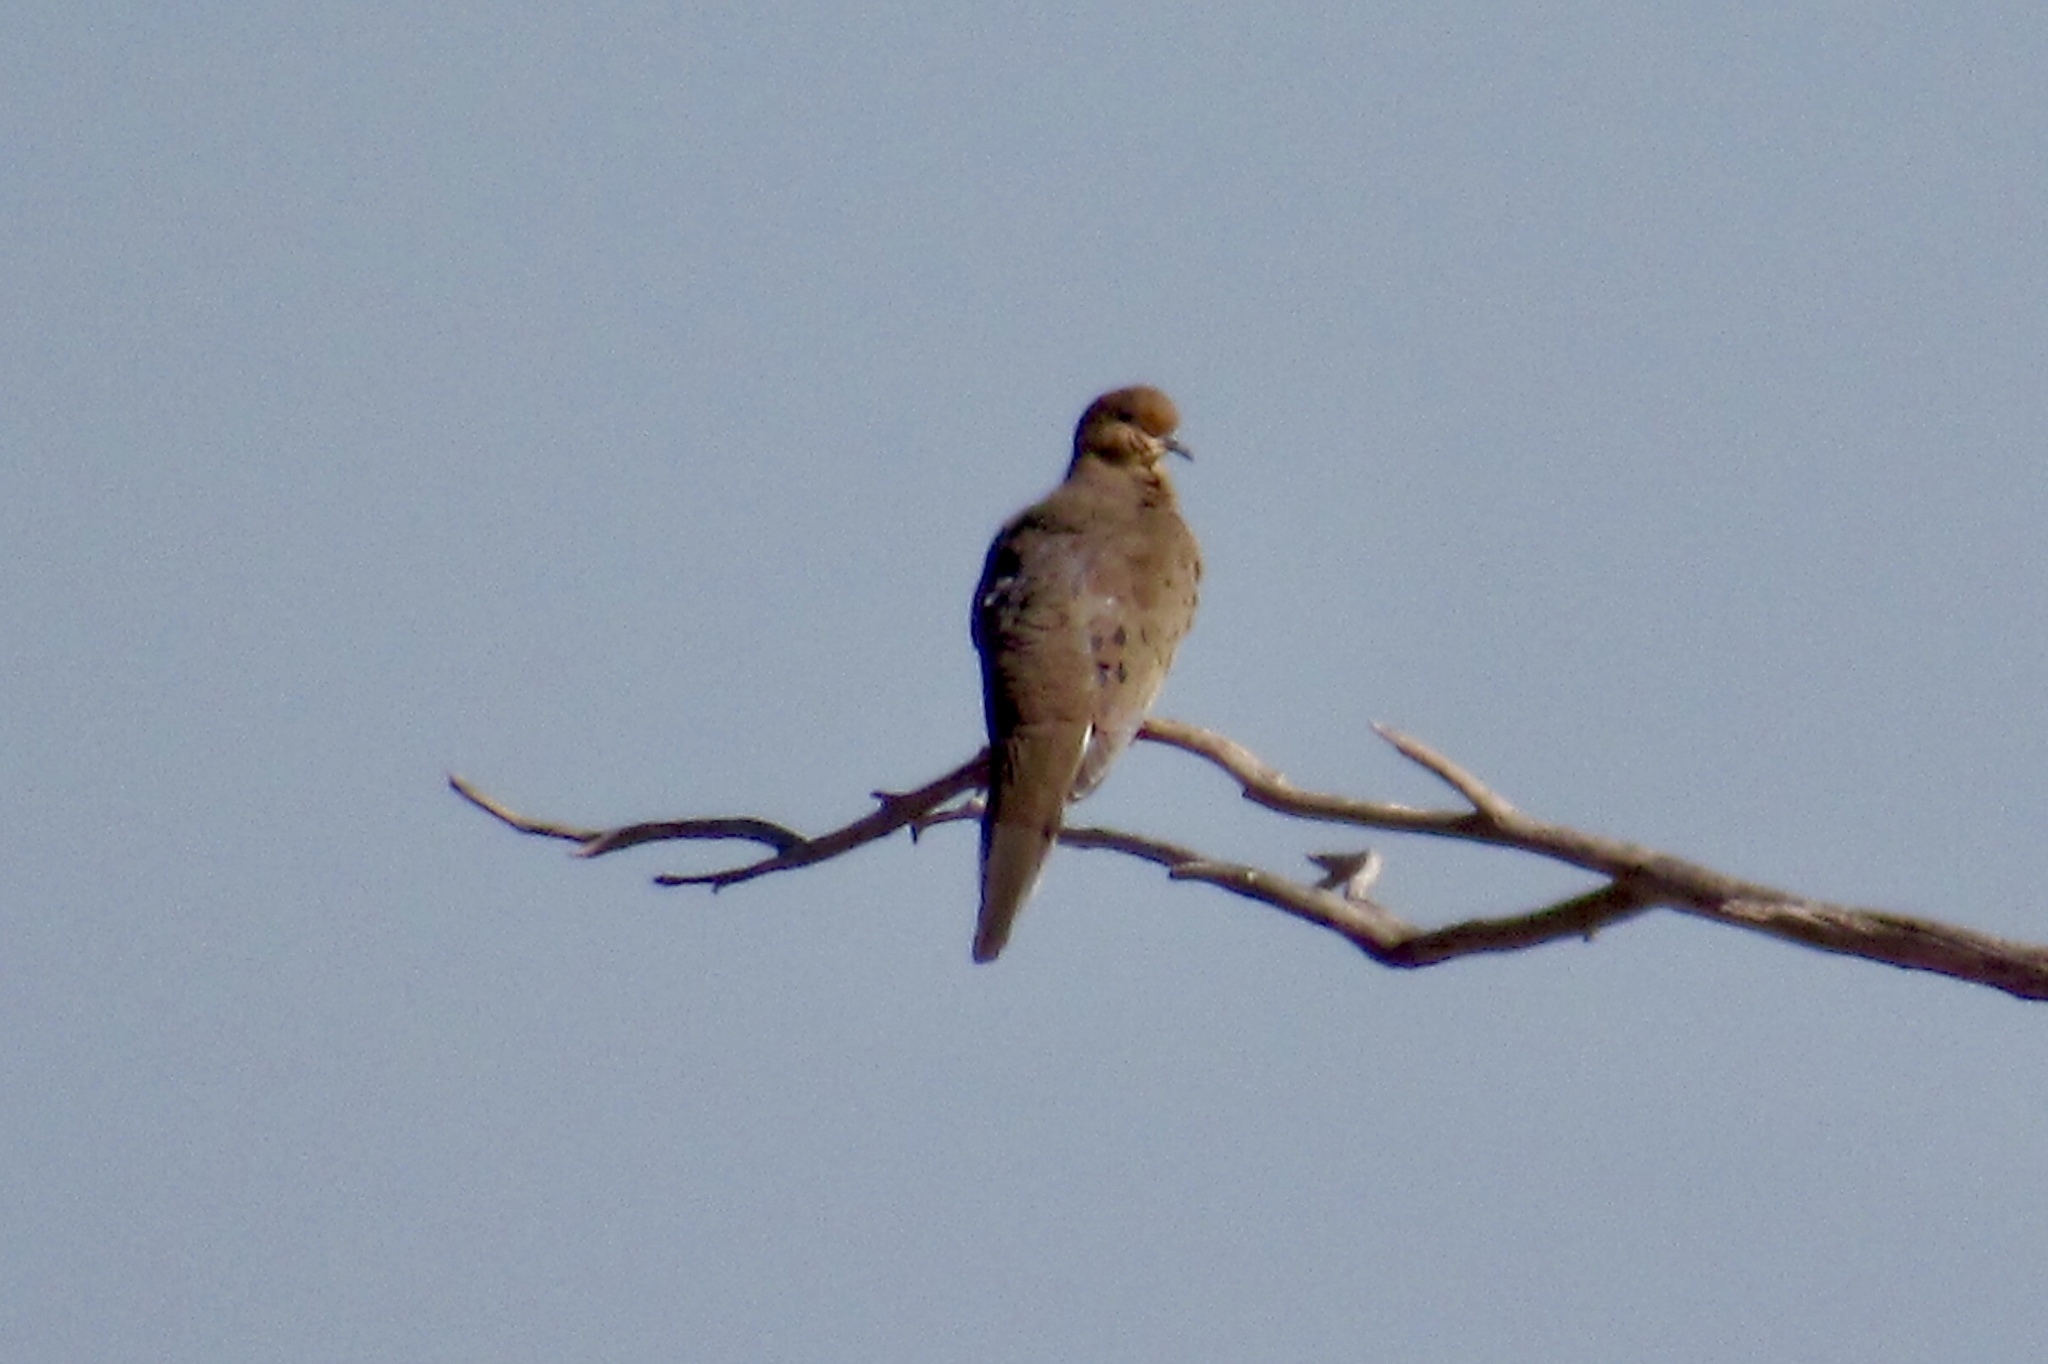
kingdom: Animalia
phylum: Chordata
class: Aves
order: Columbiformes
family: Columbidae
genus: Zenaida
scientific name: Zenaida macroura
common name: Mourning dove
